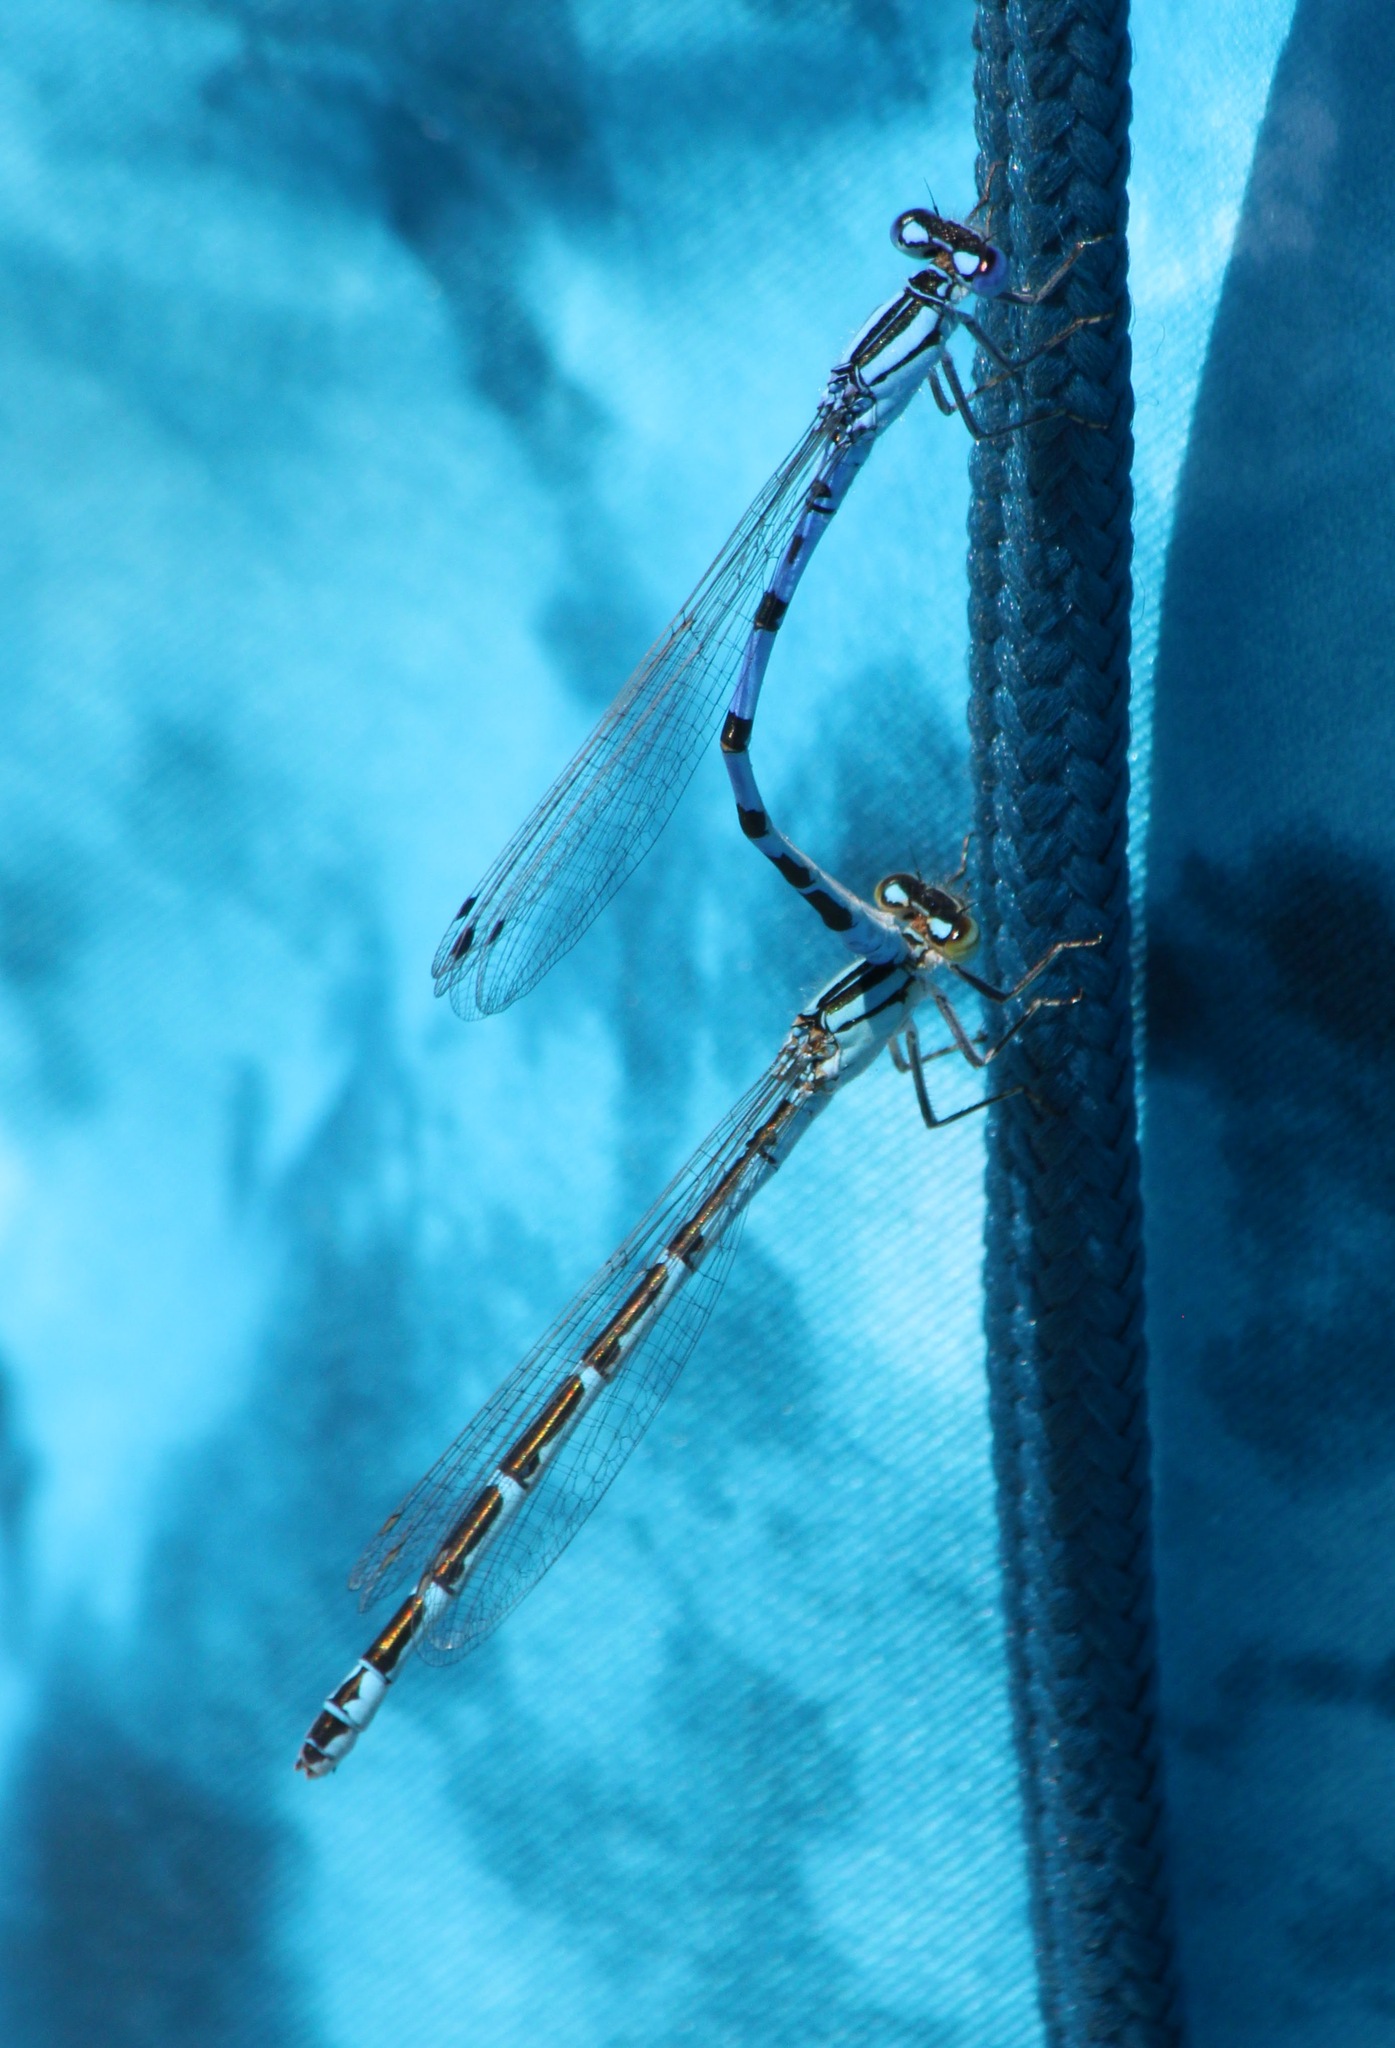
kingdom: Animalia
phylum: Arthropoda
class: Insecta
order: Odonata
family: Coenagrionidae
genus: Enallagma
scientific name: Enallagma cyathigerum
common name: Common blue damselfly
